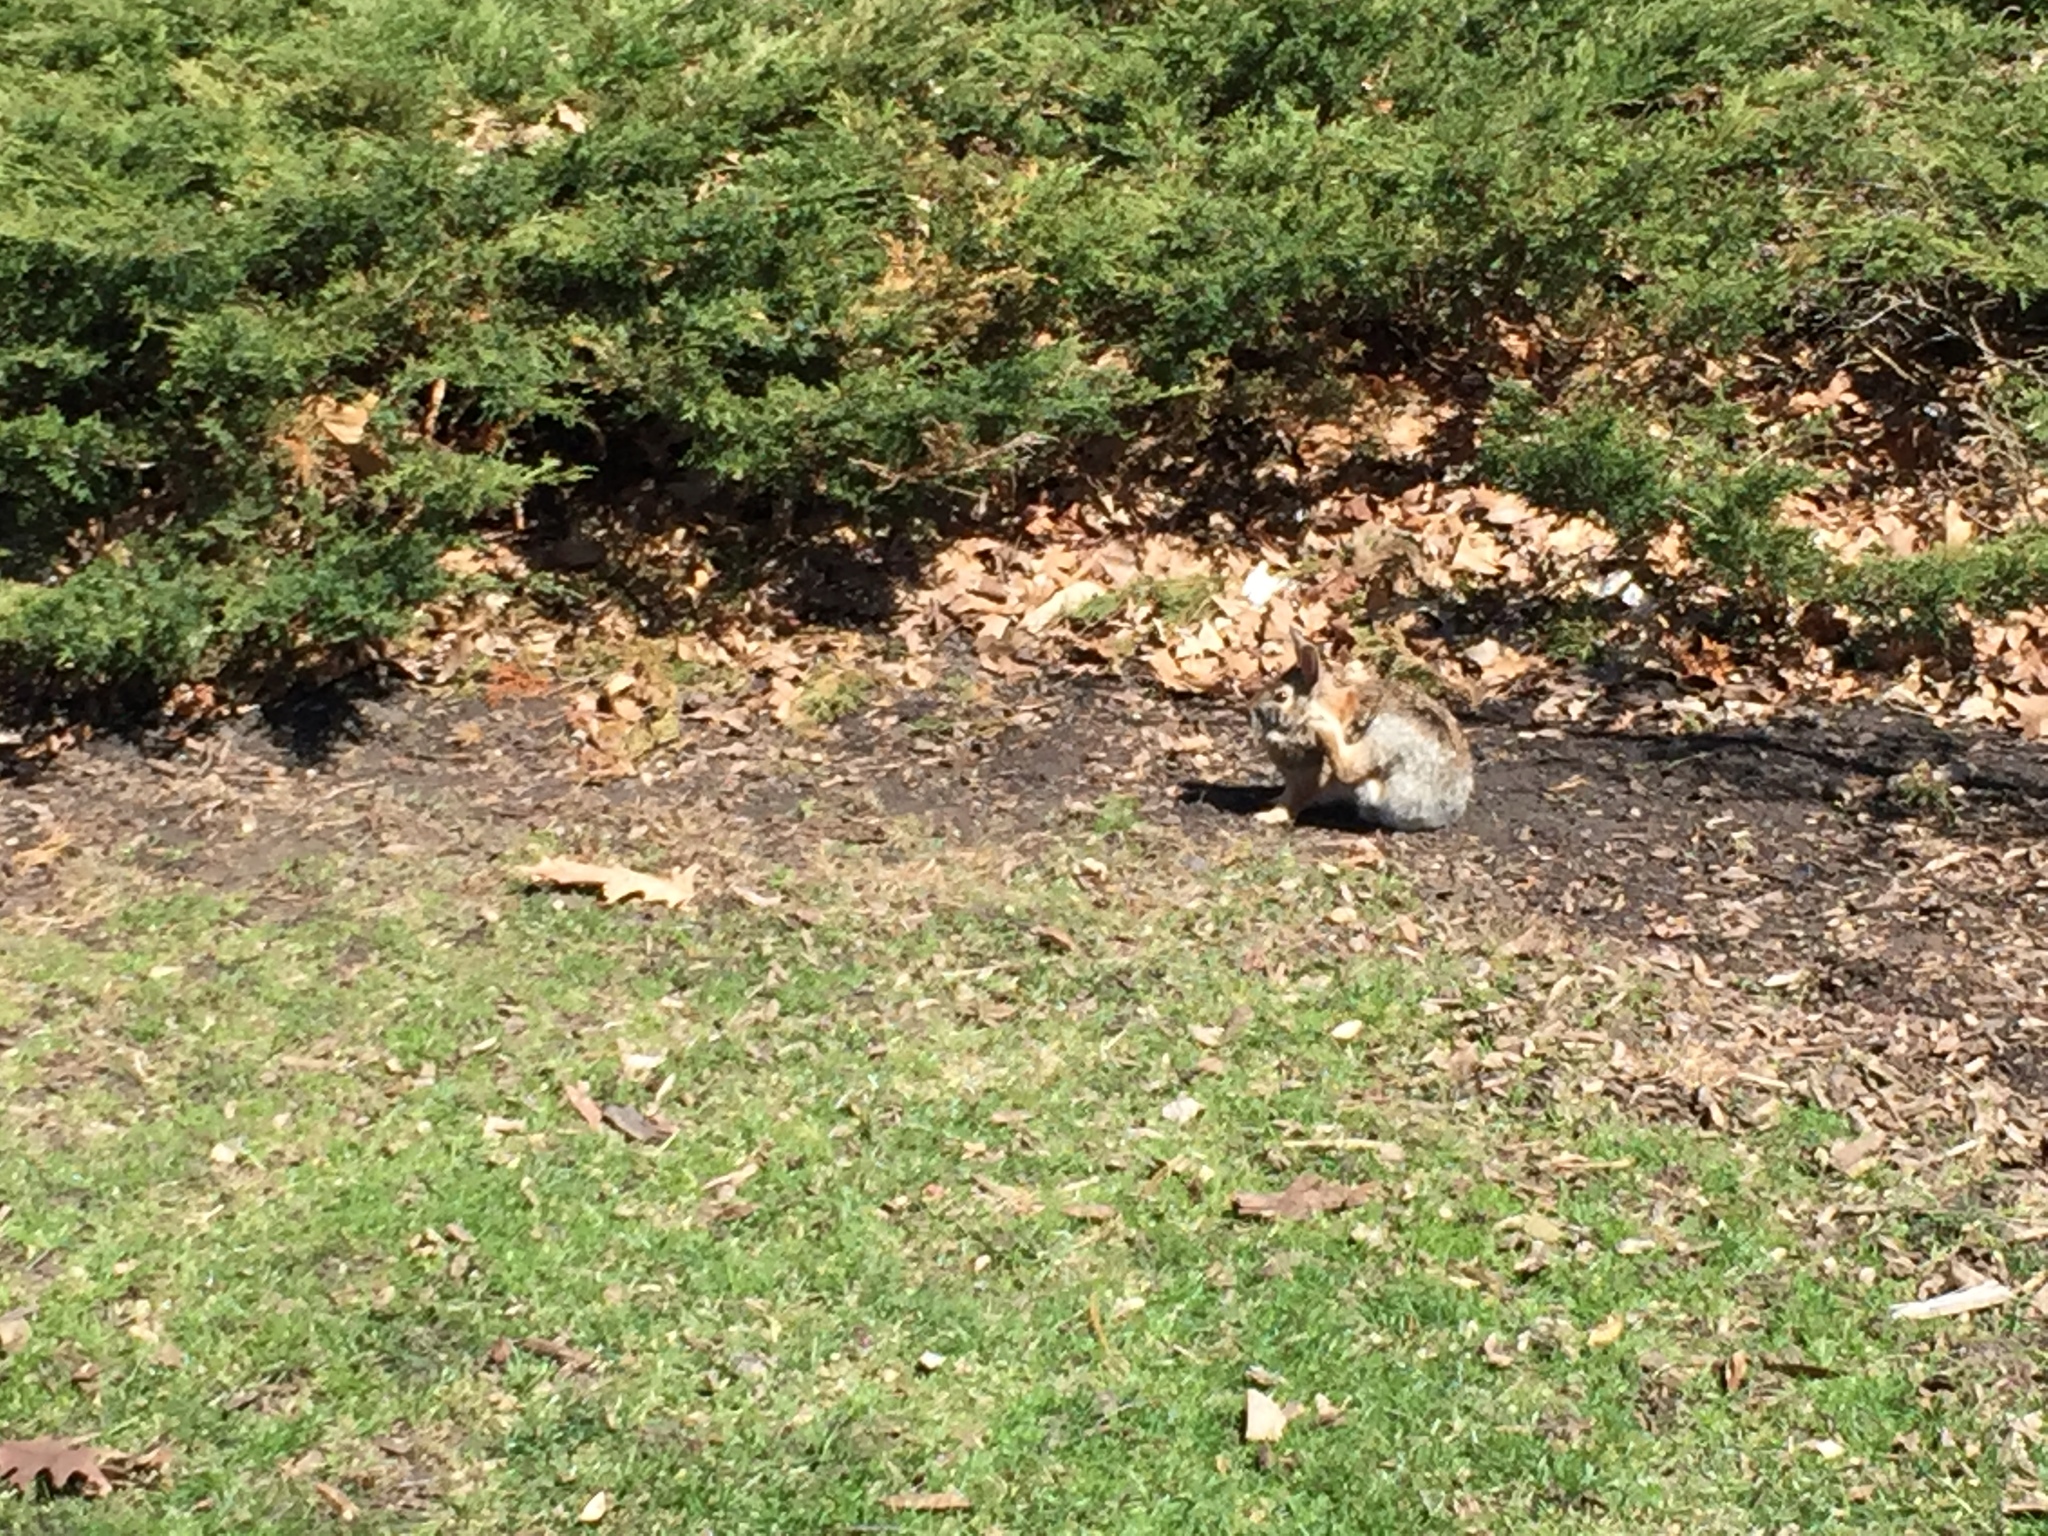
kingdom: Animalia
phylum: Chordata
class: Mammalia
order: Lagomorpha
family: Leporidae
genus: Sylvilagus
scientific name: Sylvilagus floridanus
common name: Eastern cottontail
